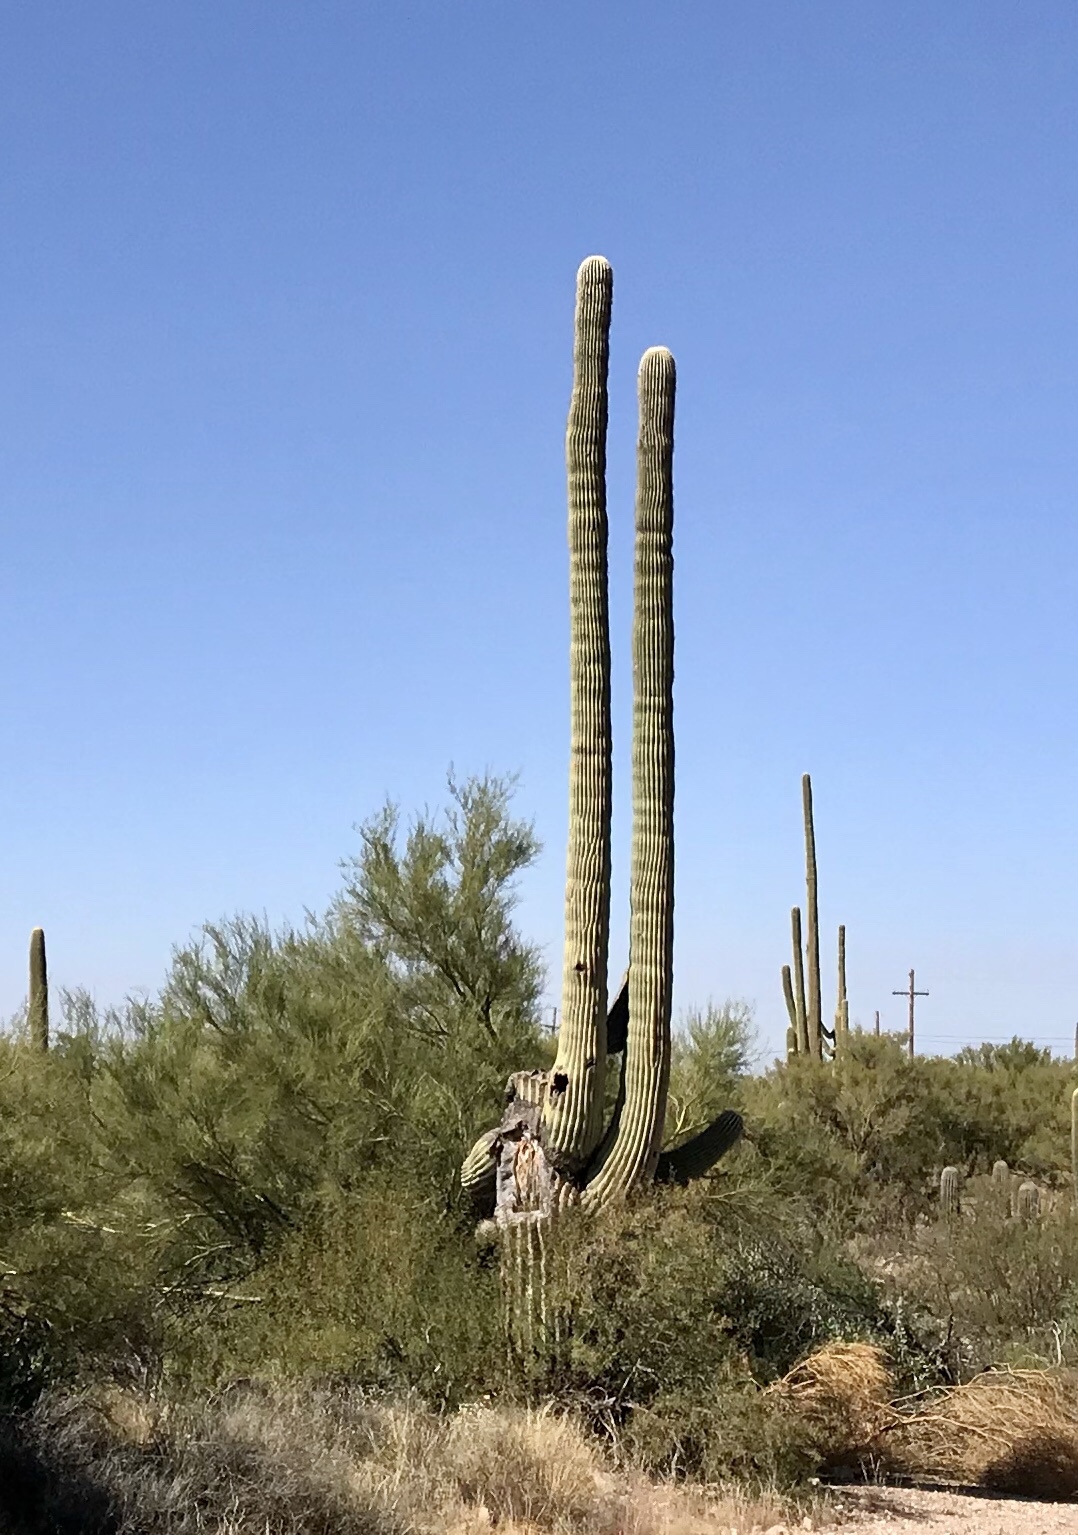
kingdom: Plantae
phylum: Tracheophyta
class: Magnoliopsida
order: Caryophyllales
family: Cactaceae
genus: Carnegiea
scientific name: Carnegiea gigantea
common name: Saguaro
